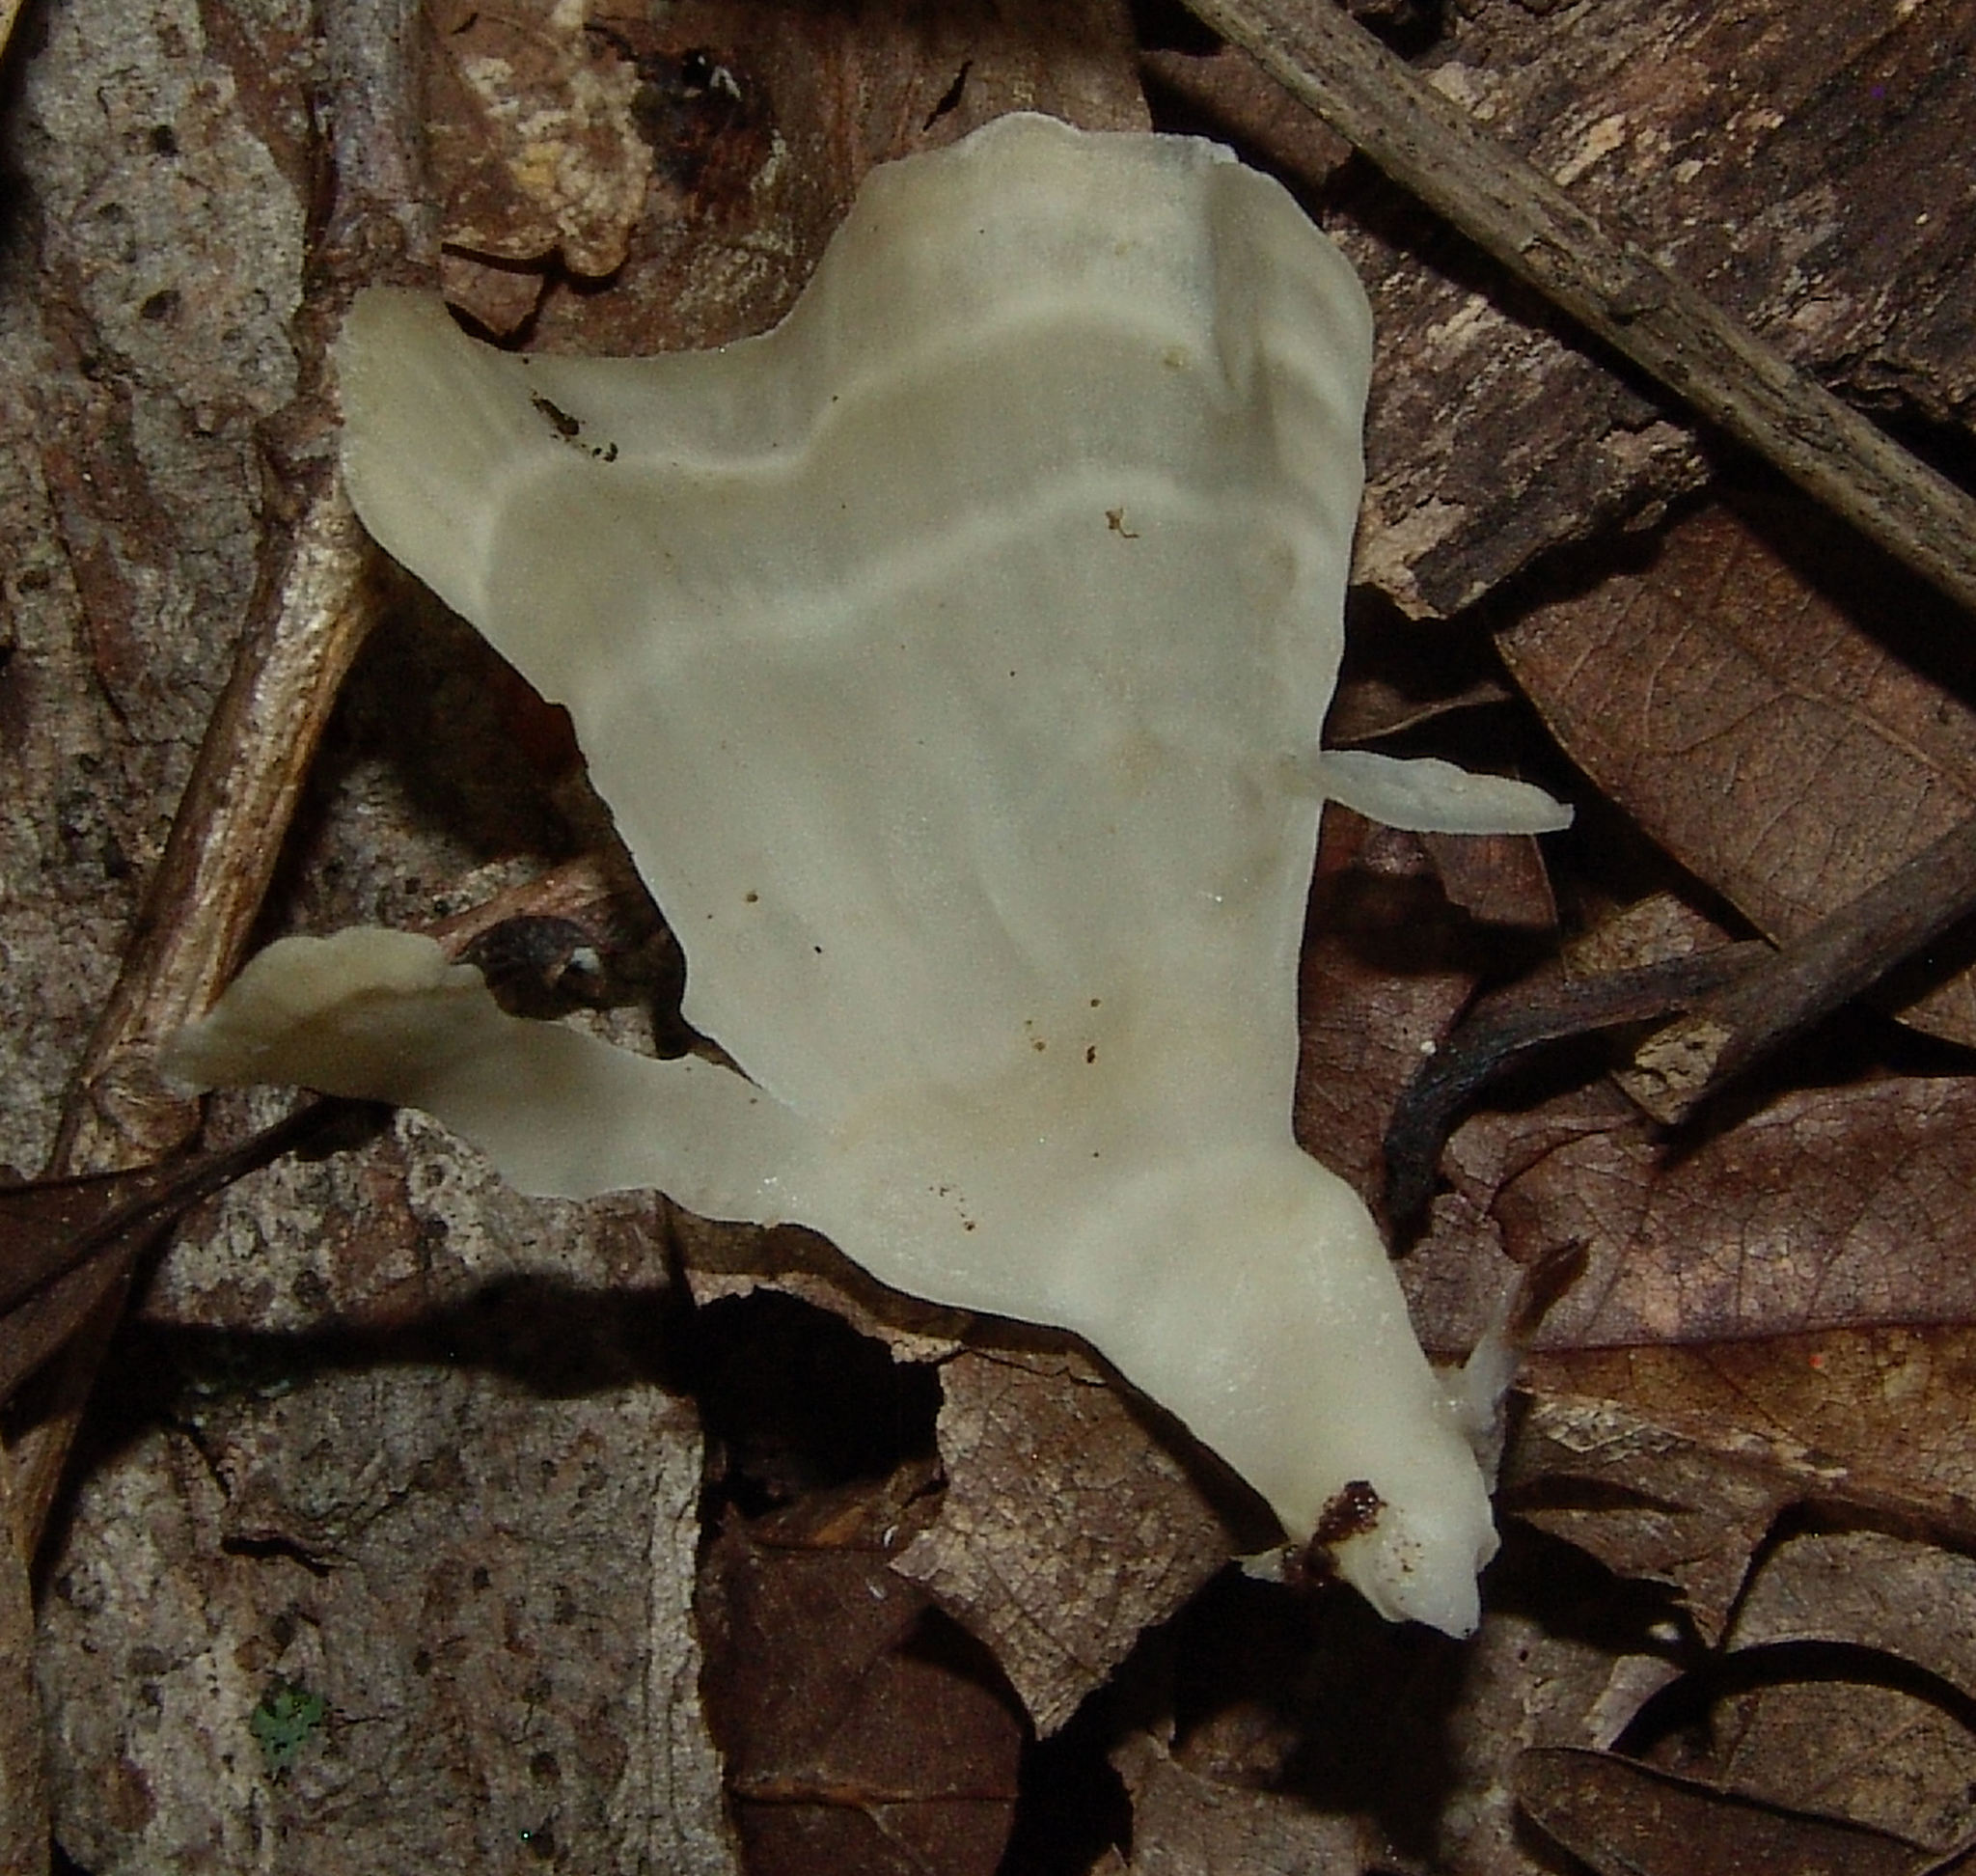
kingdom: Fungi
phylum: Basidiomycota
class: Agaricomycetes
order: Polyporales
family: Sparassidaceae
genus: Sparassis
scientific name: Sparassis spathulata
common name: Eastern cauliflower mushroom
